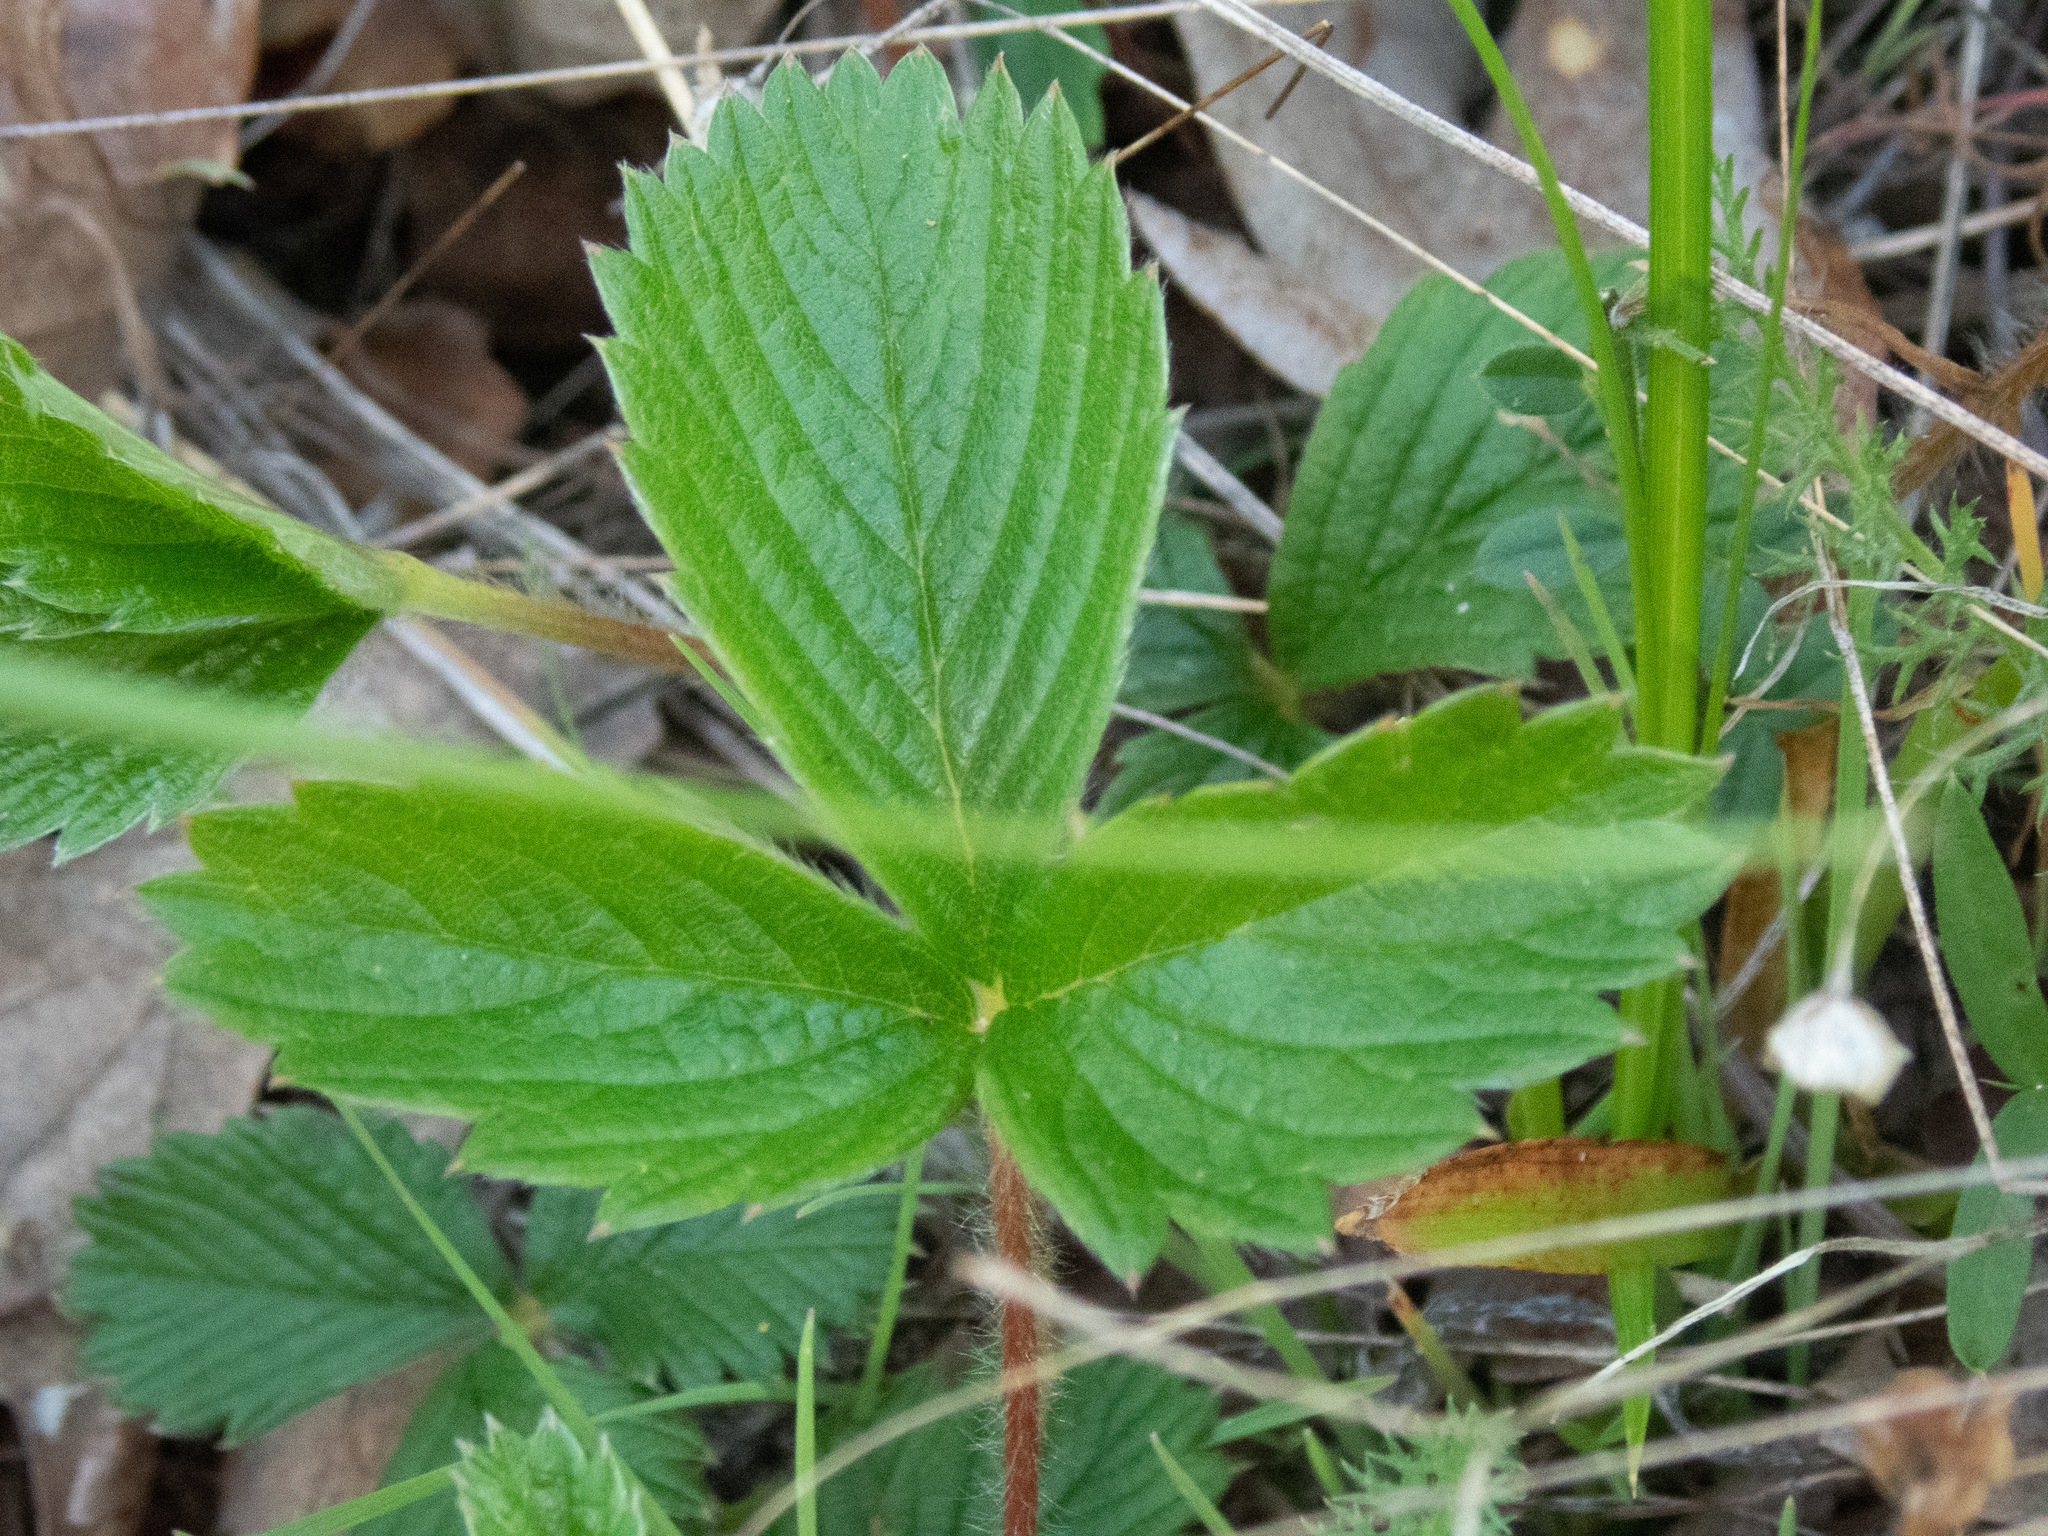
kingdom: Plantae
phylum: Tracheophyta
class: Magnoliopsida
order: Rosales
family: Rosaceae
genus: Fragaria
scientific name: Fragaria vesca
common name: Wild strawberry
